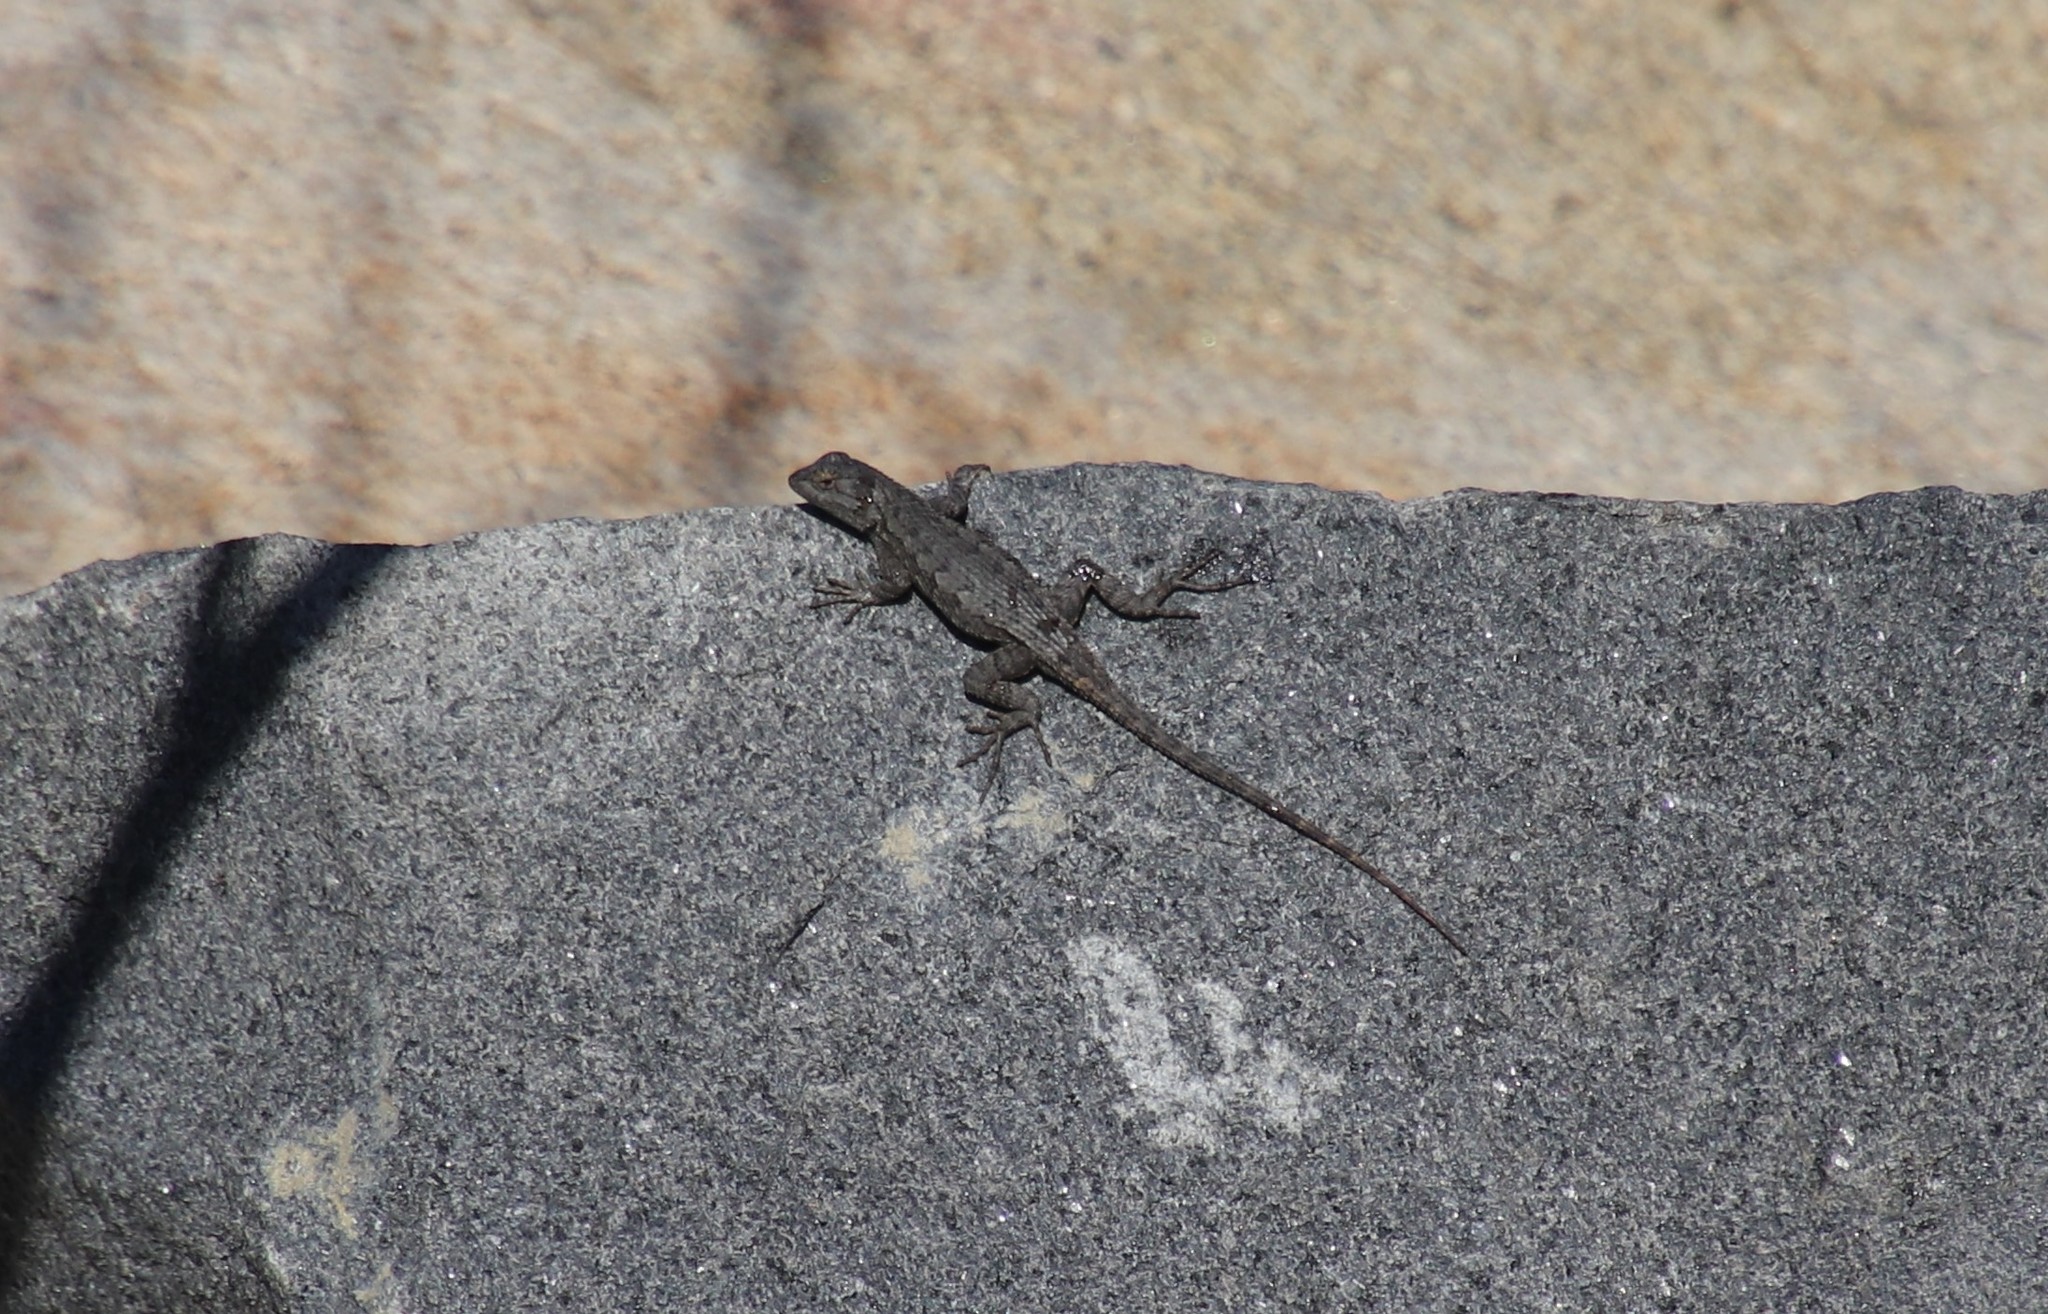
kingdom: Animalia
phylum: Chordata
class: Squamata
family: Phrynosomatidae
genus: Sceloporus
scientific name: Sceloporus occidentalis
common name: Western fence lizard
